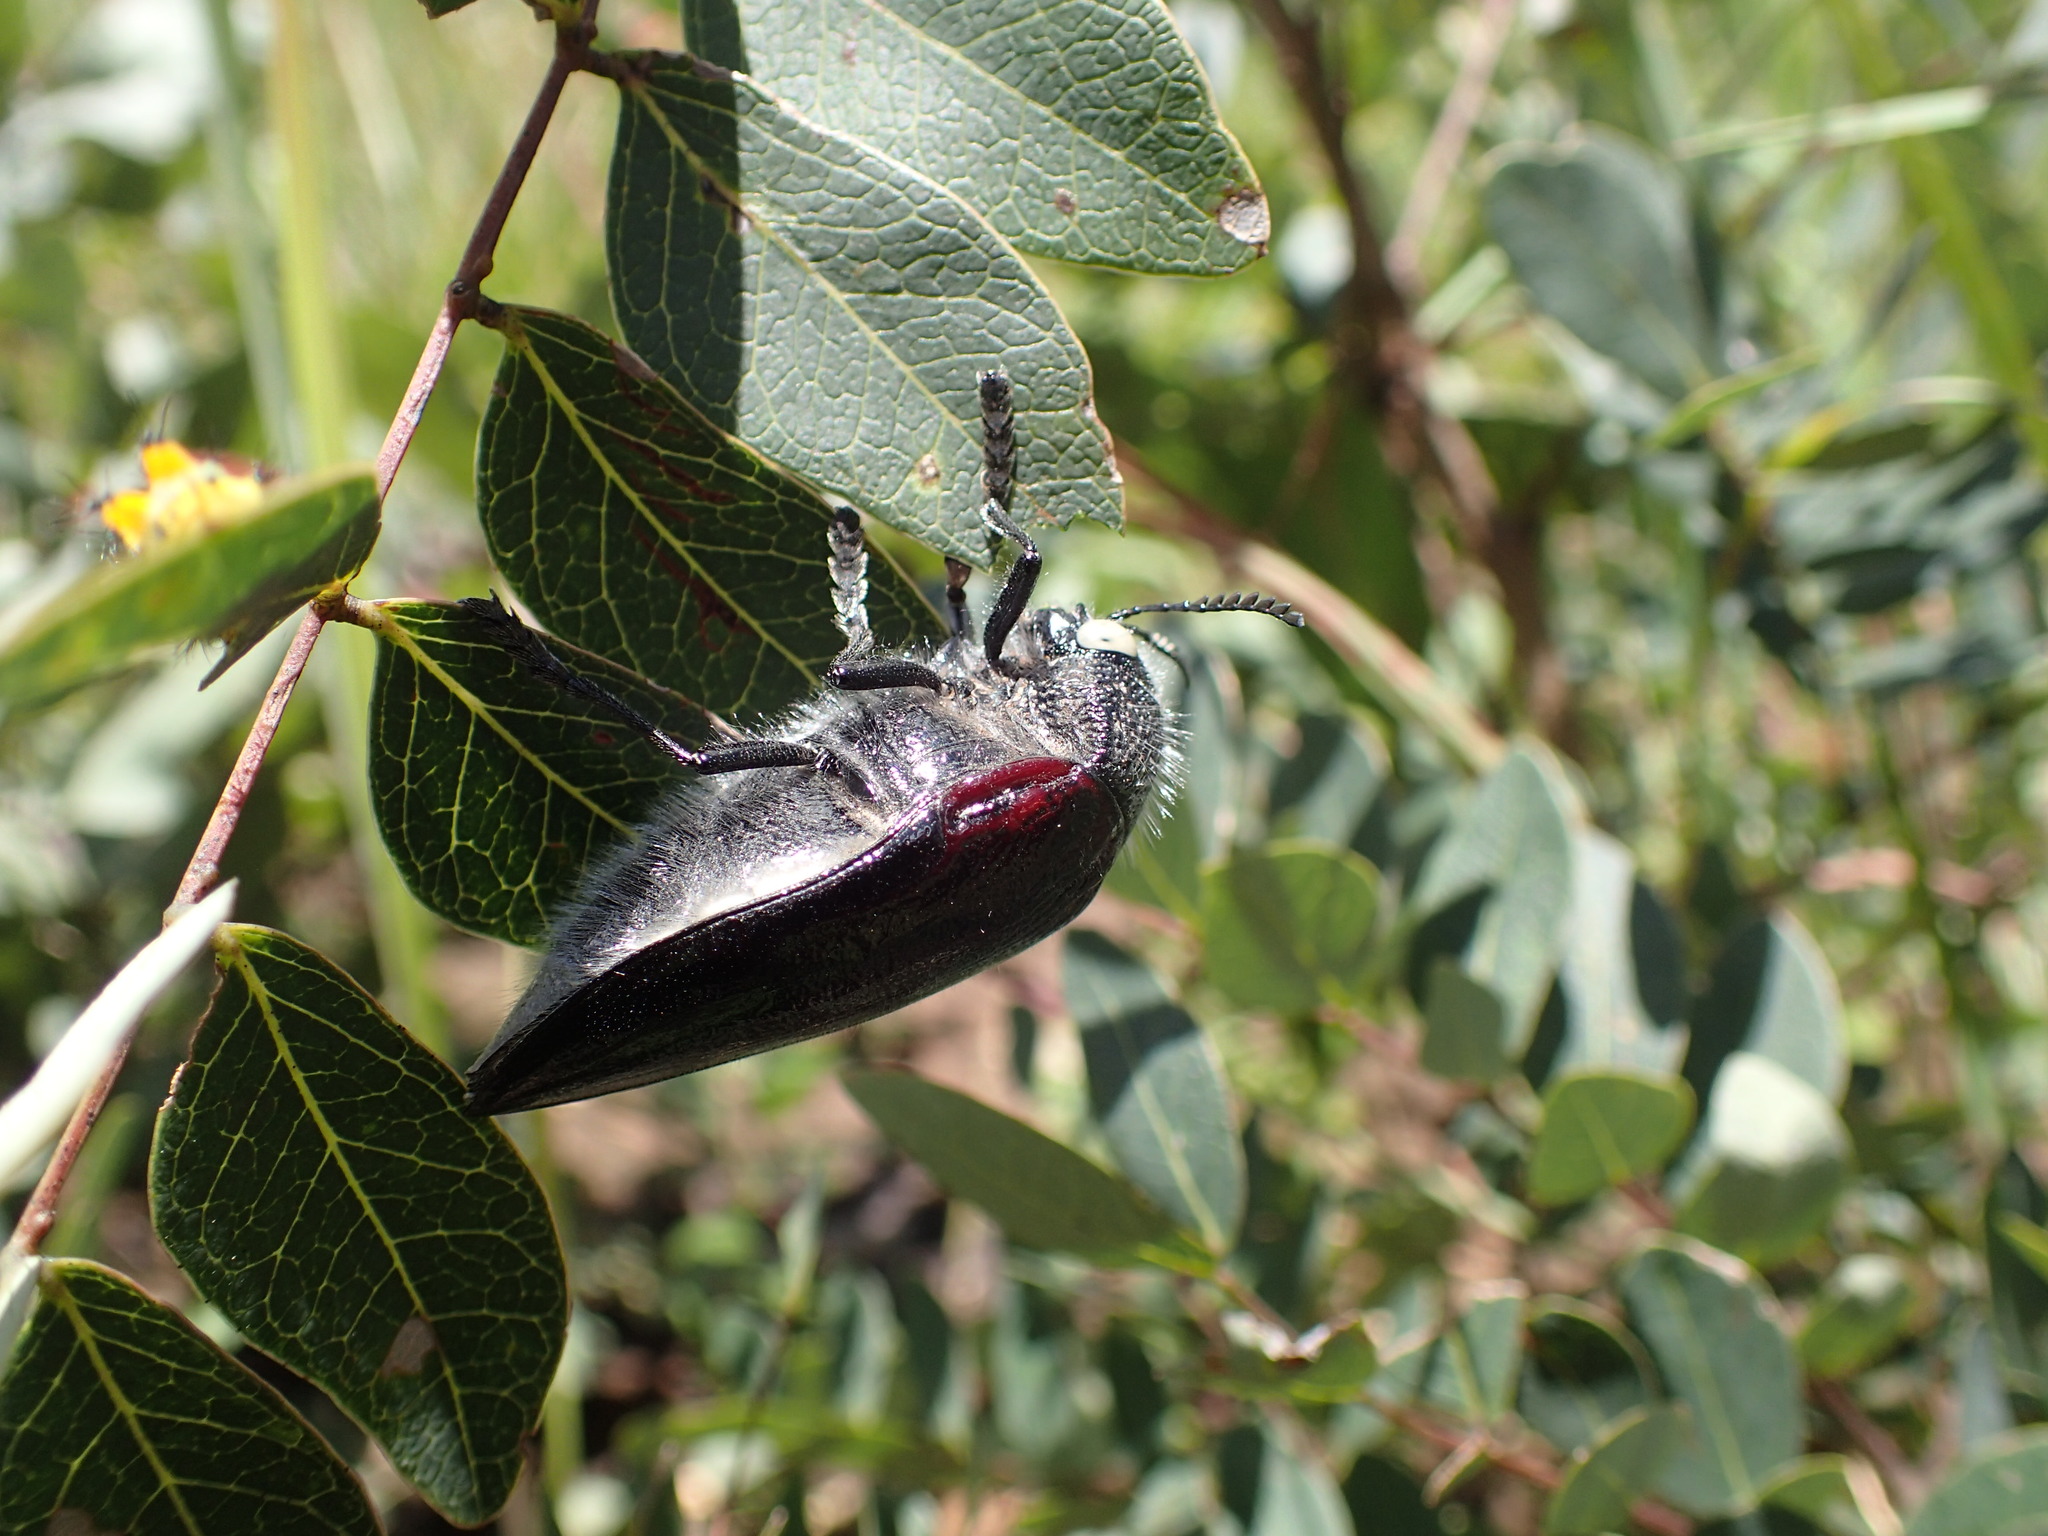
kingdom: Animalia
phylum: Arthropoda
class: Insecta
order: Coleoptera
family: Buprestidae
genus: Sternocera
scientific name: Sternocera orissa
